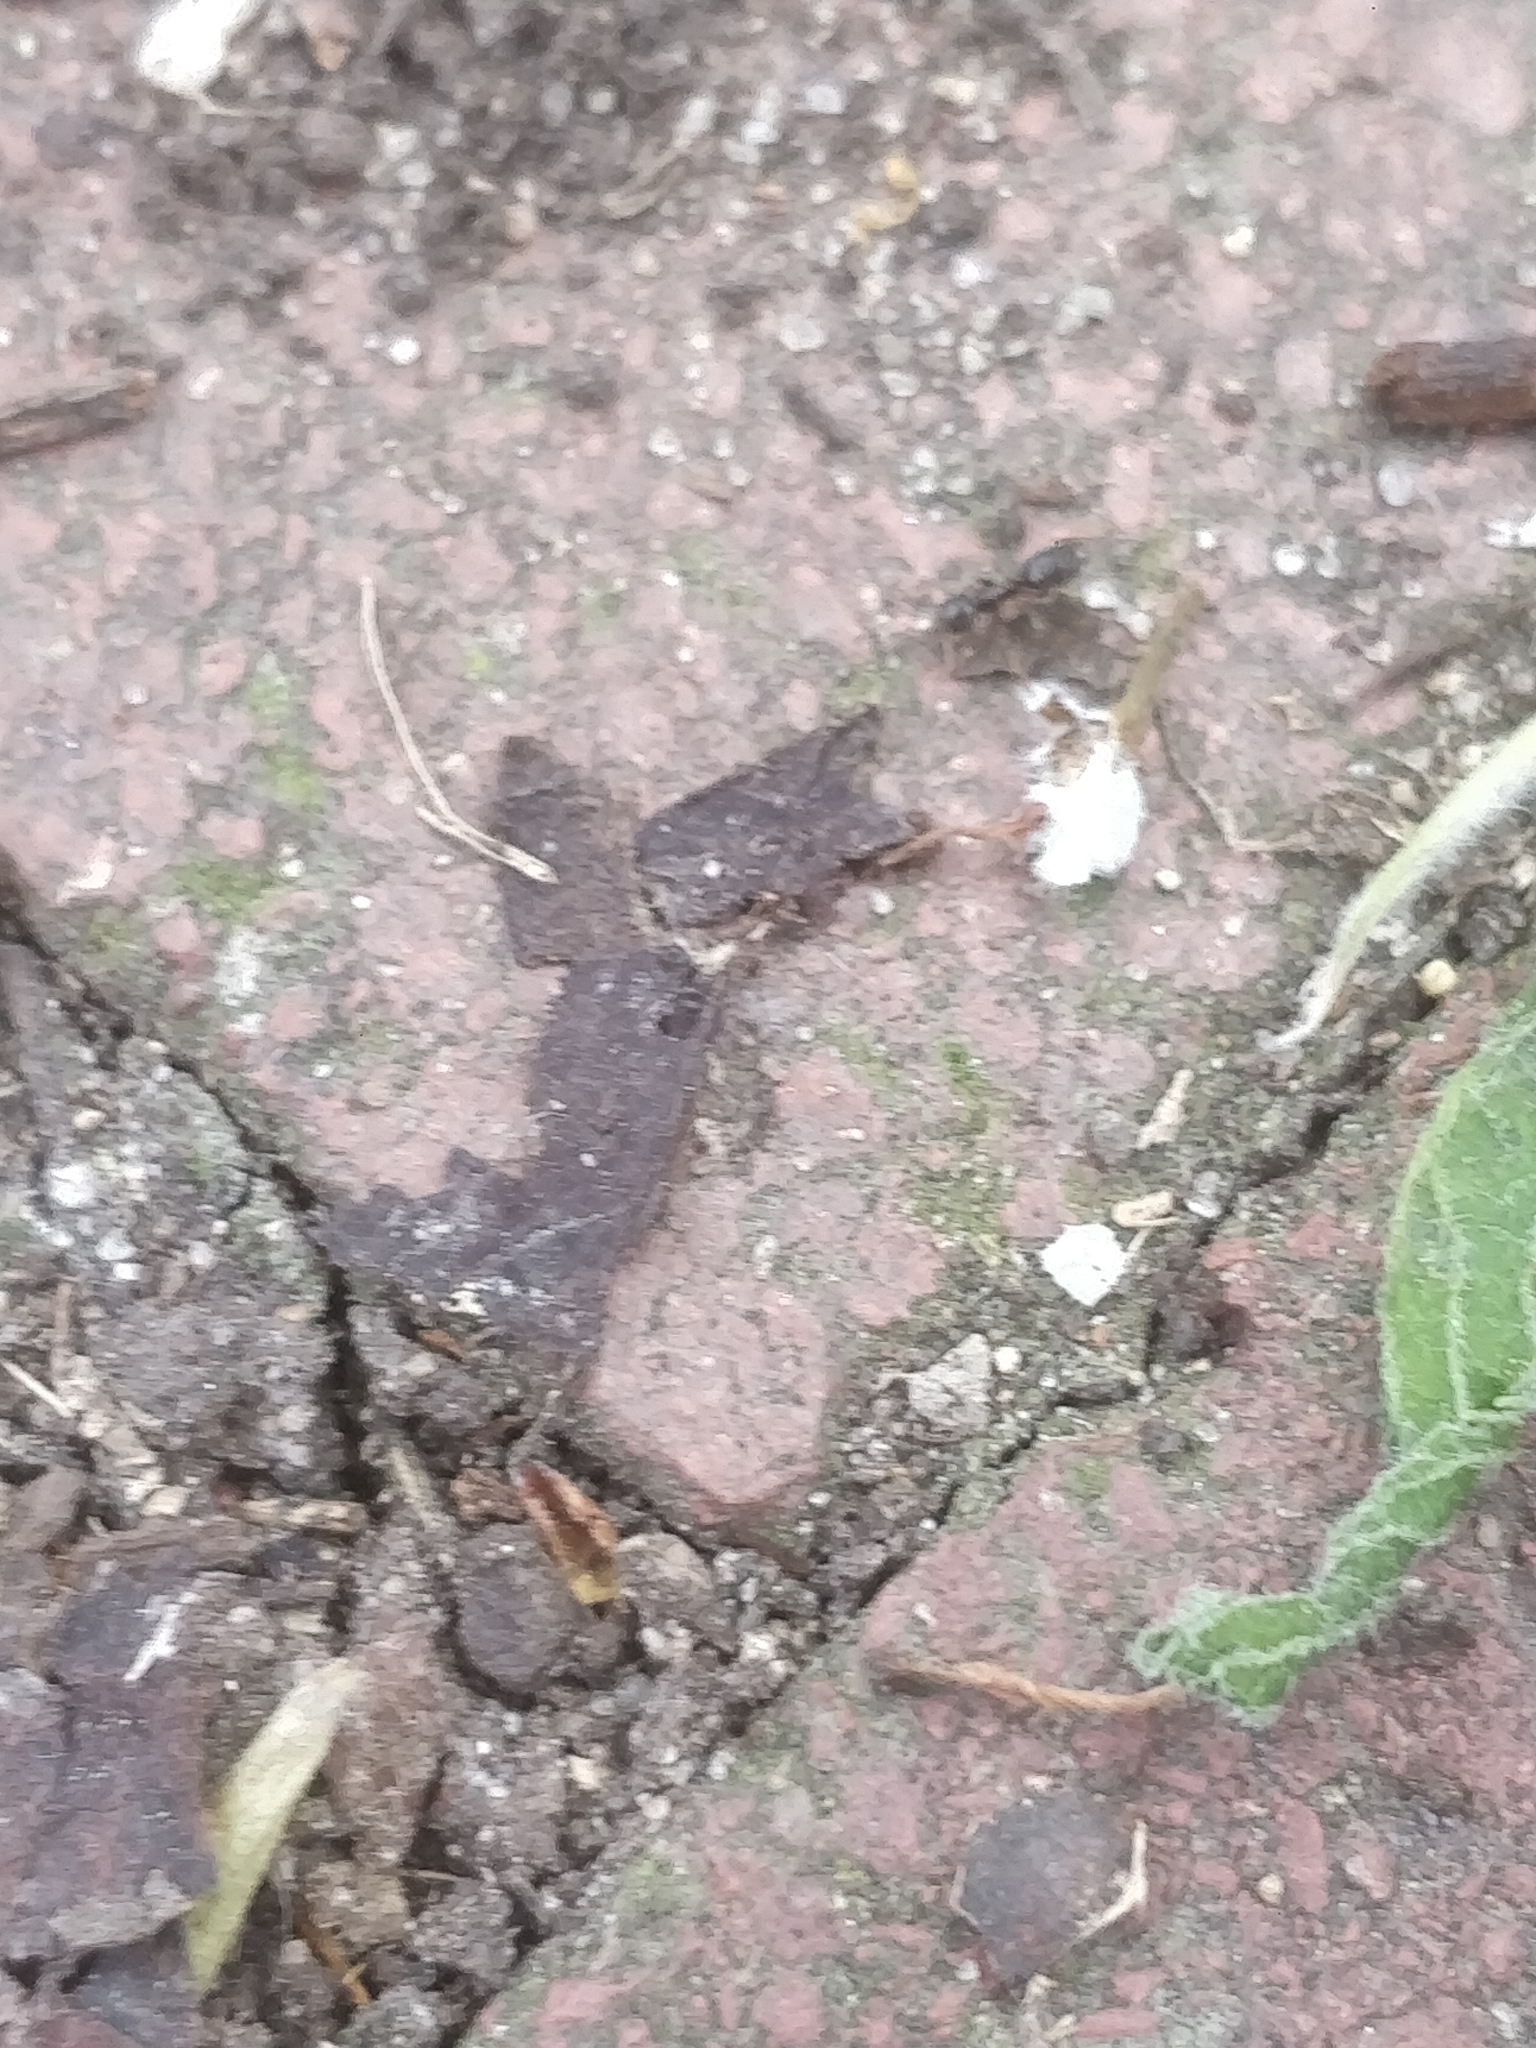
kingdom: Animalia
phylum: Arthropoda
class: Insecta
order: Hymenoptera
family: Formicidae
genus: Tapinoma
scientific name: Tapinoma sessile
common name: Odorous house ant
